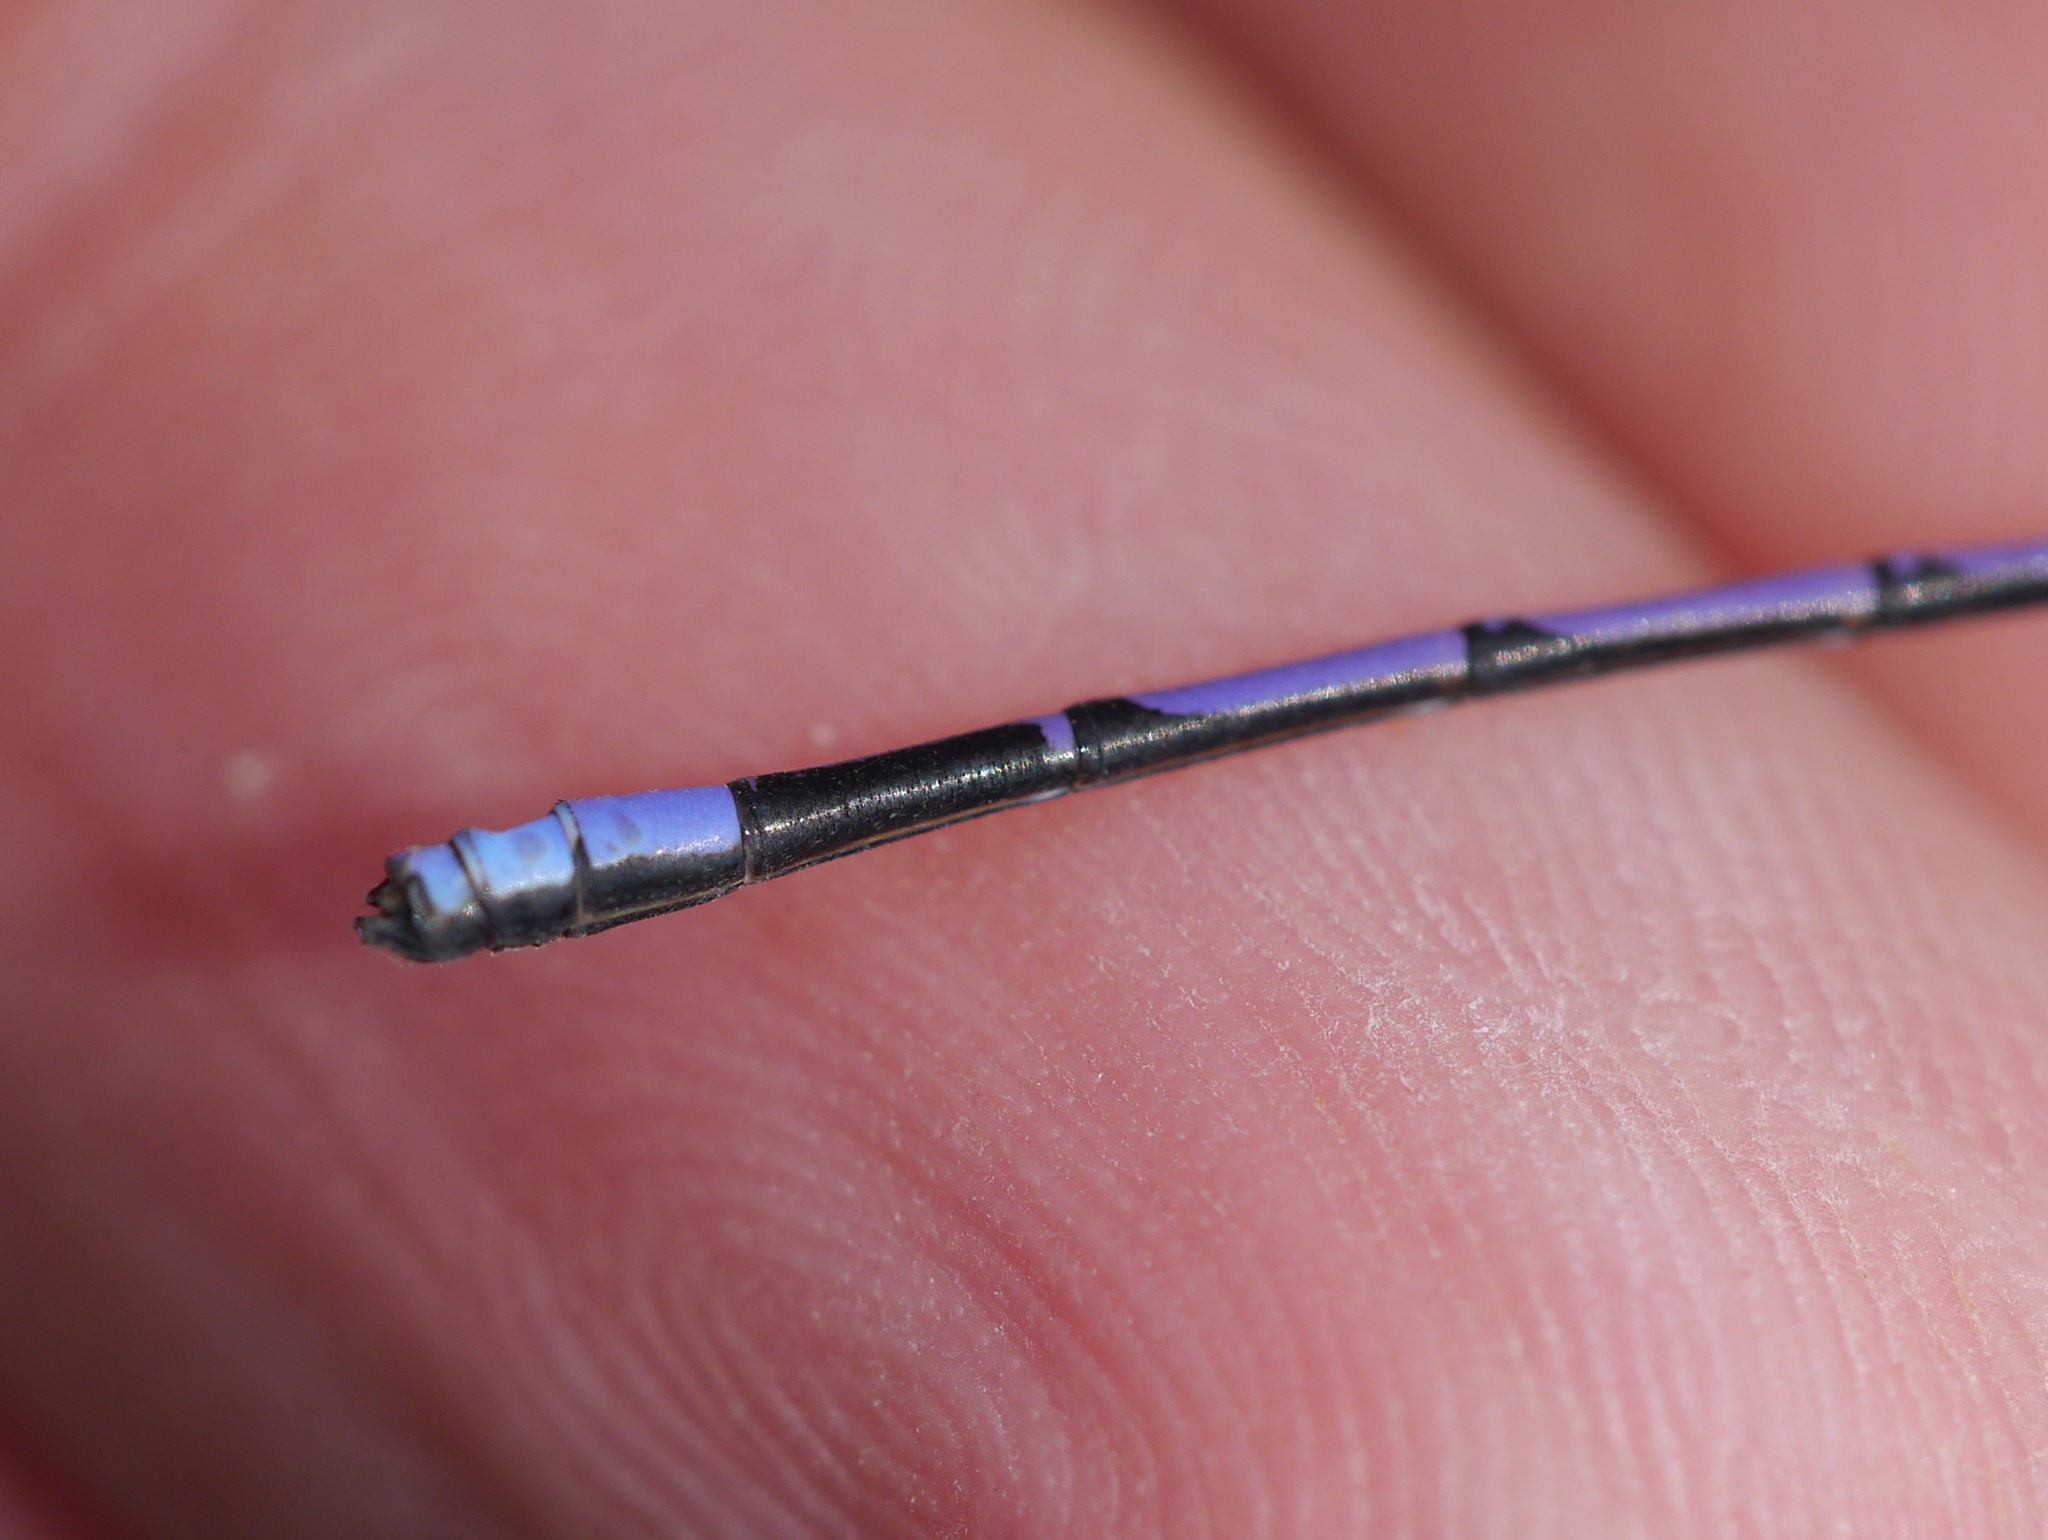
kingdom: Animalia
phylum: Arthropoda
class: Insecta
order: Odonata
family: Coenagrionidae
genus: Argia
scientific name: Argia fumipennis
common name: Variable dancer
